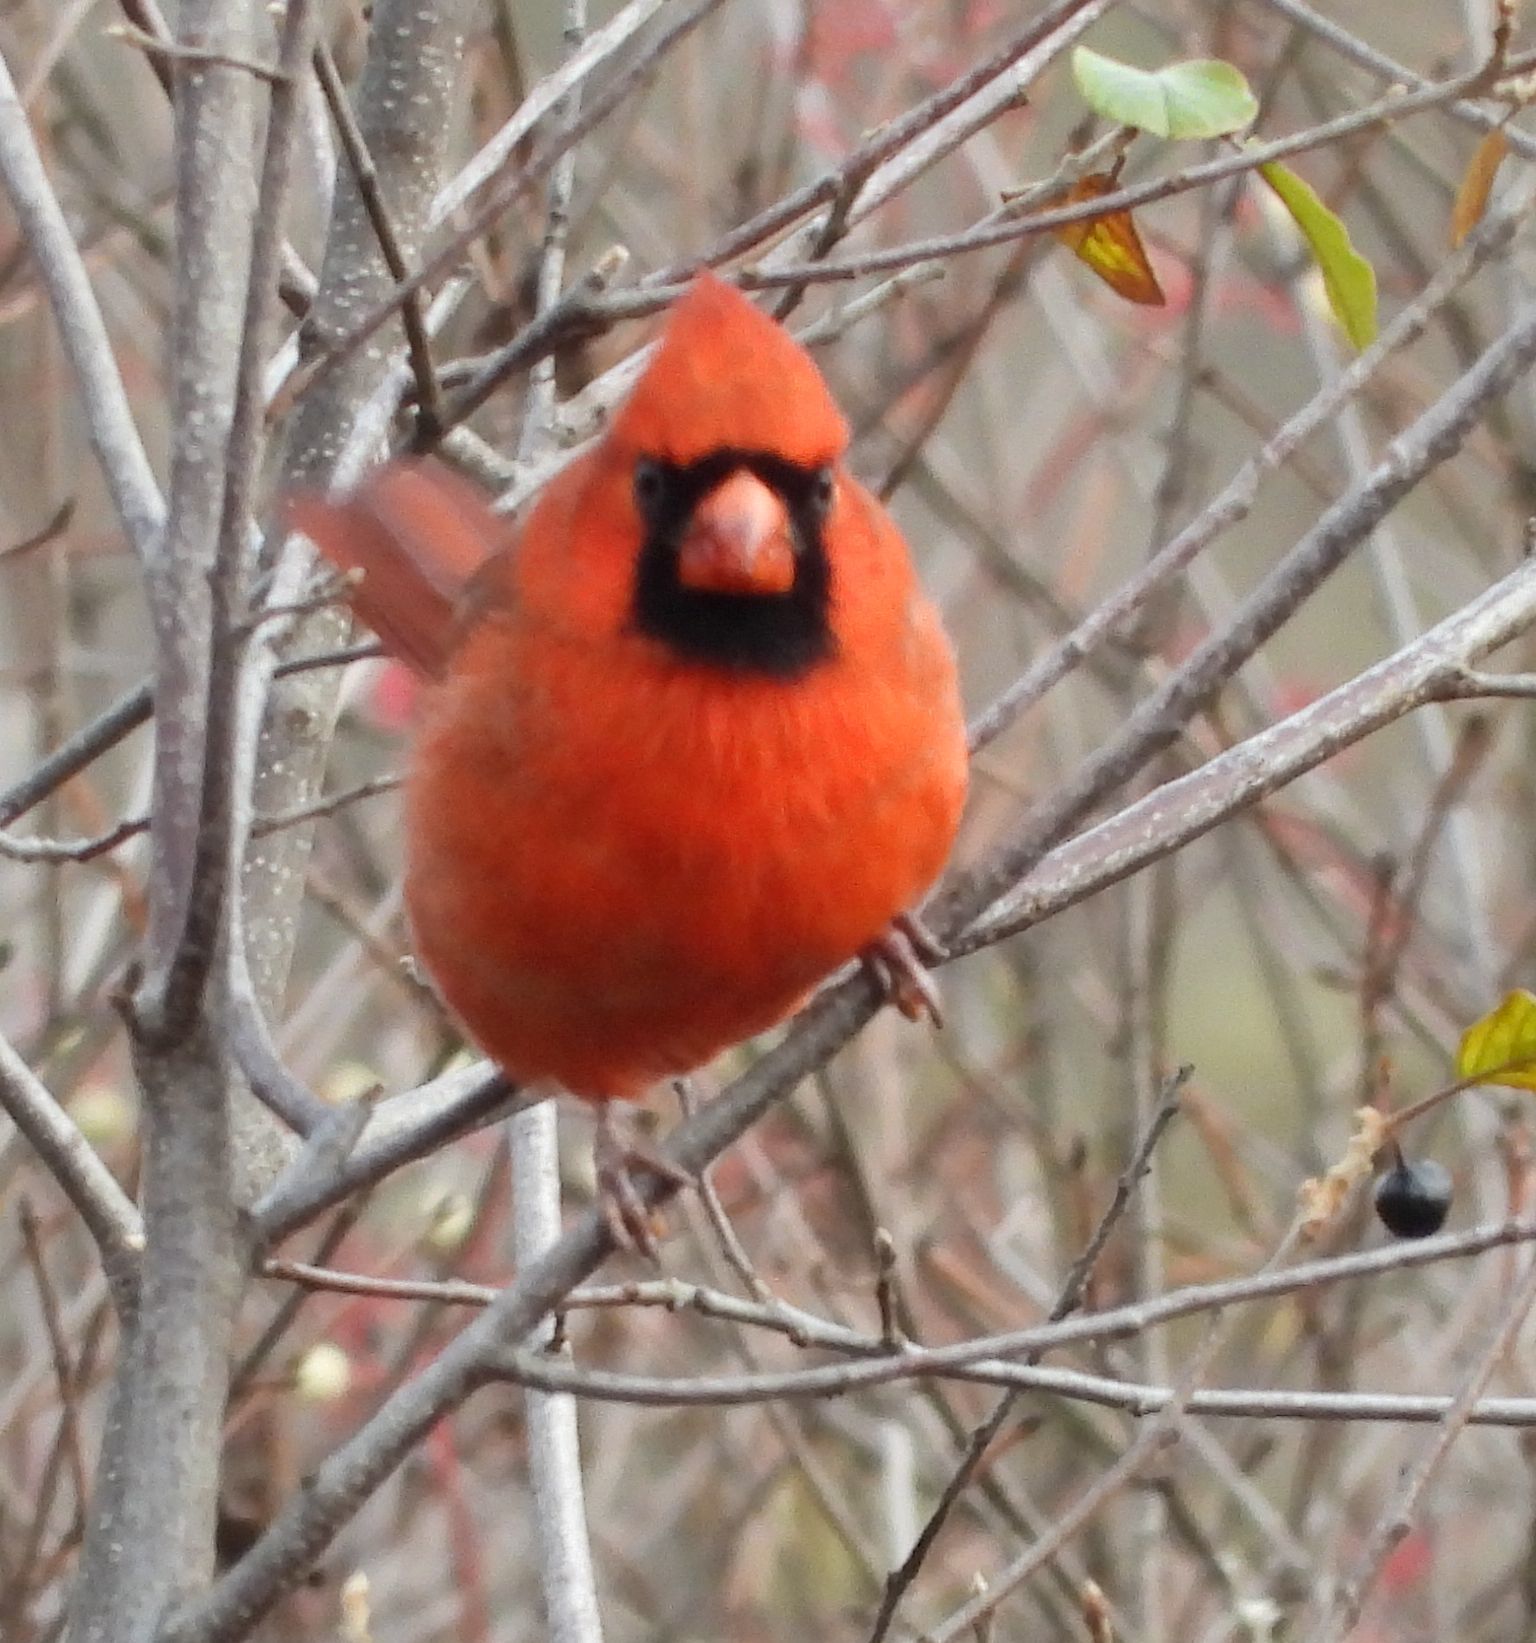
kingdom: Animalia
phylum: Chordata
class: Aves
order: Passeriformes
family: Cardinalidae
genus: Cardinalis
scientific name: Cardinalis cardinalis
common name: Northern cardinal
